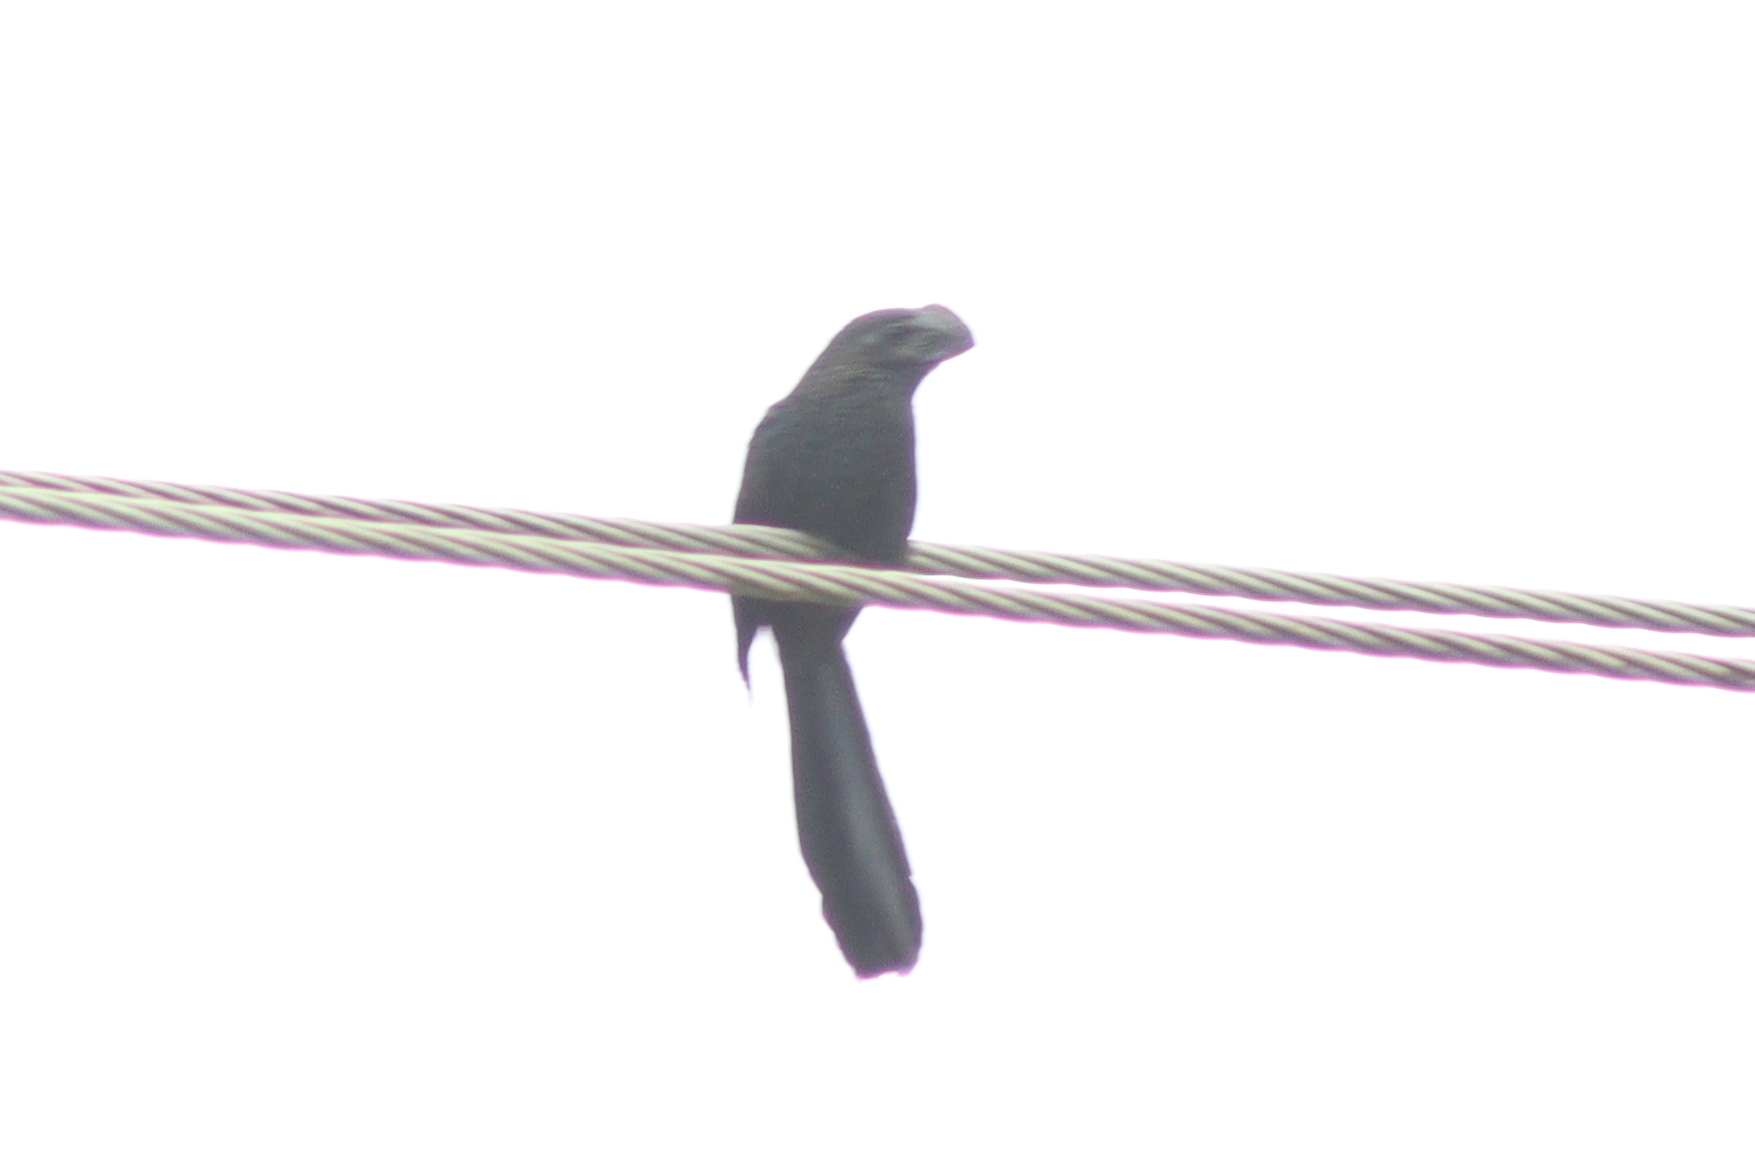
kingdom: Animalia
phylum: Chordata
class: Aves
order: Cuculiformes
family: Cuculidae
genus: Crotophaga
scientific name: Crotophaga ani
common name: Smooth-billed ani
